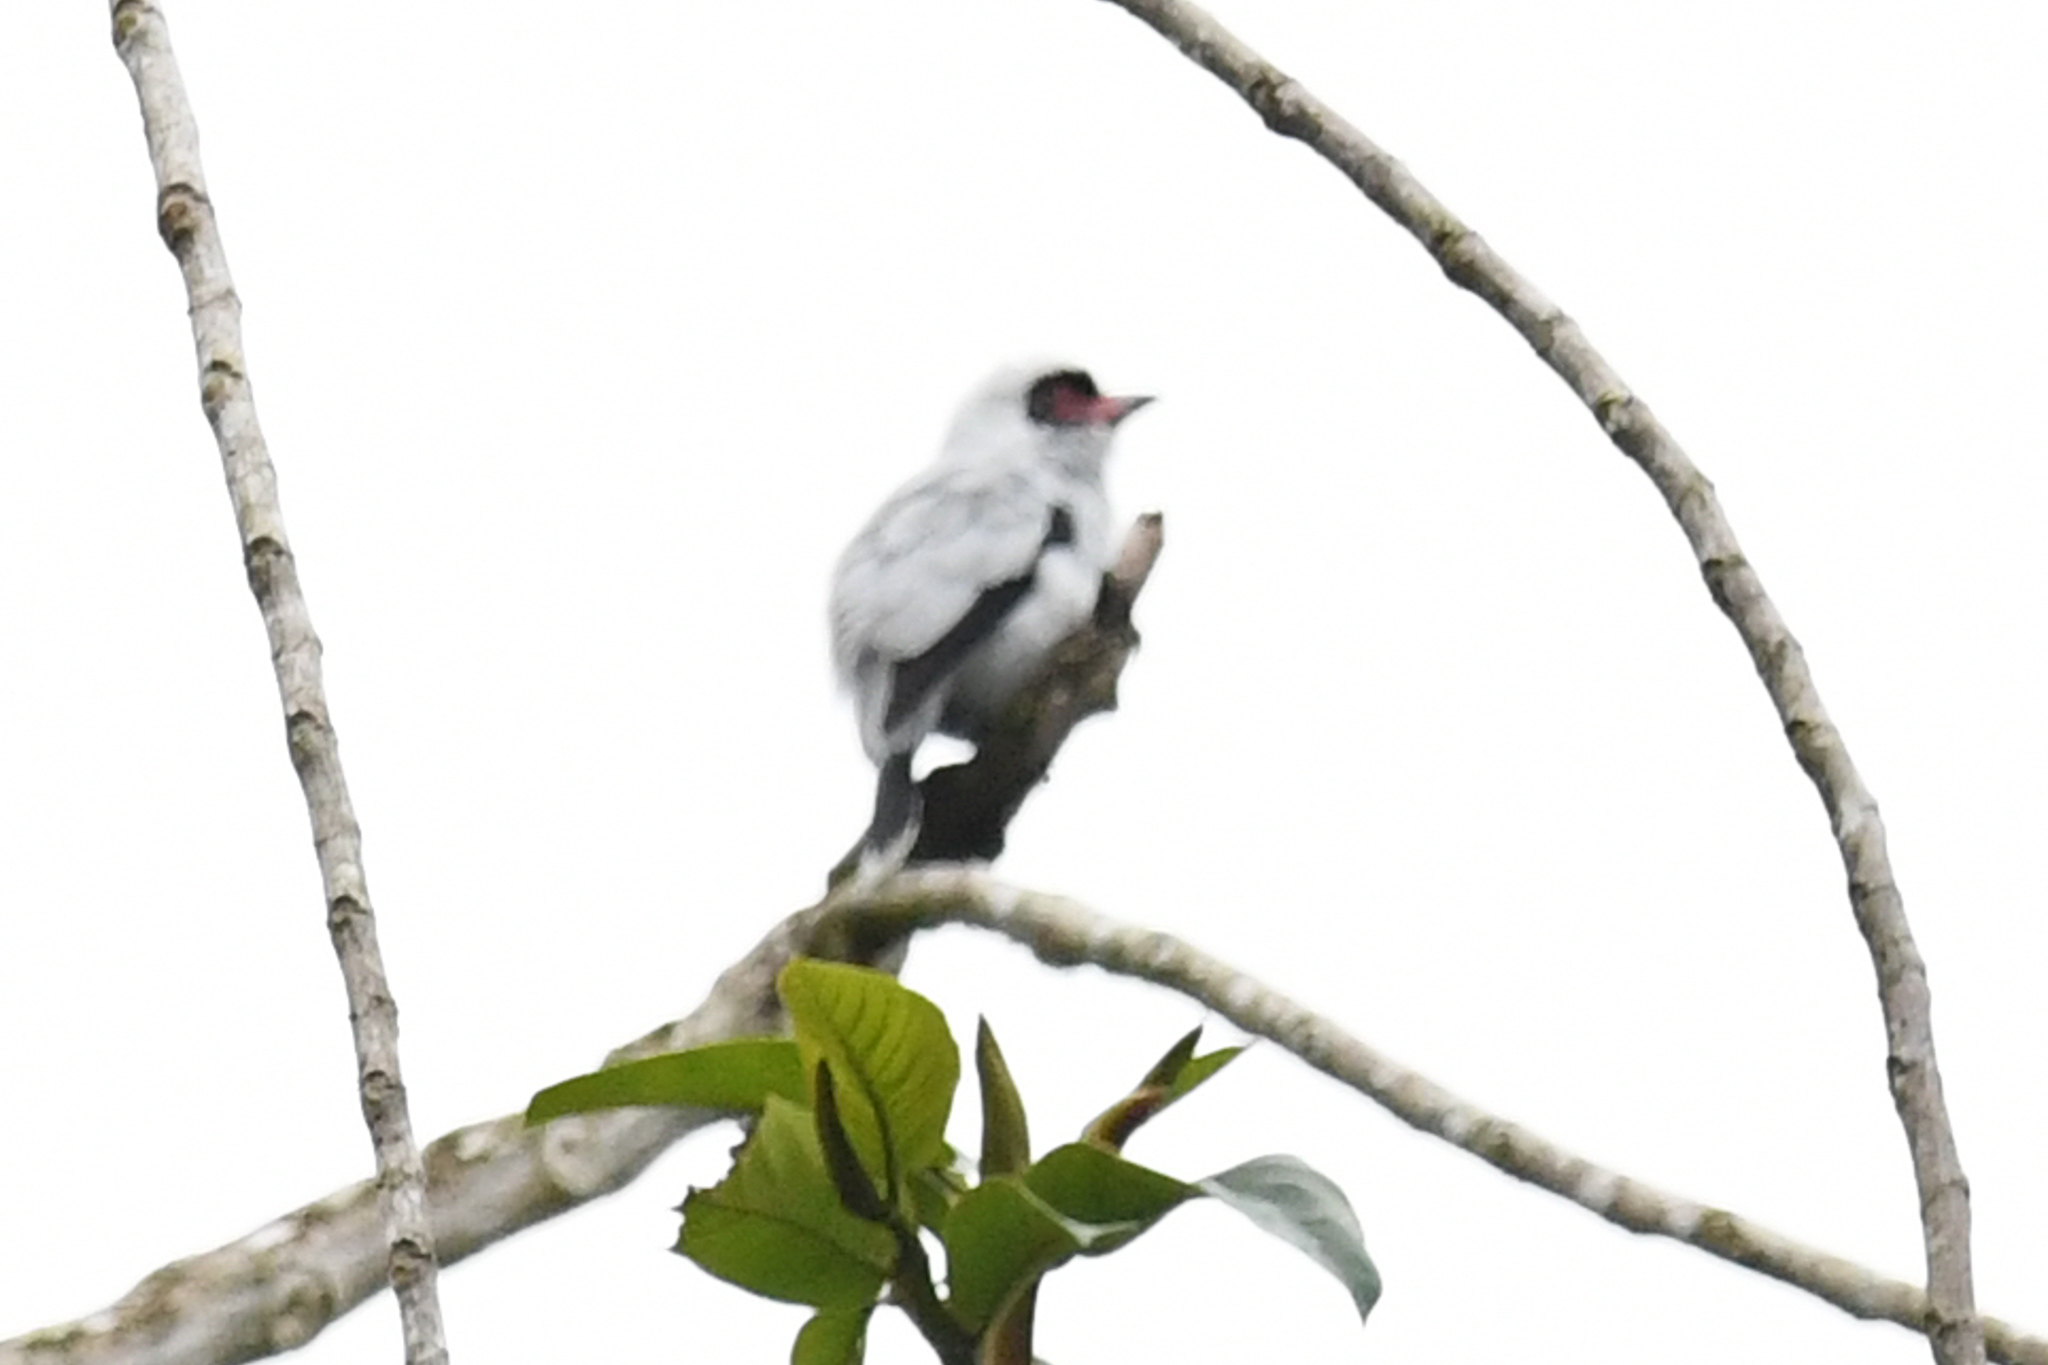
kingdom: Animalia
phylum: Chordata
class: Aves
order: Passeriformes
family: Cotingidae
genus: Tityra
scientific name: Tityra semifasciata
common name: Masked tityra
